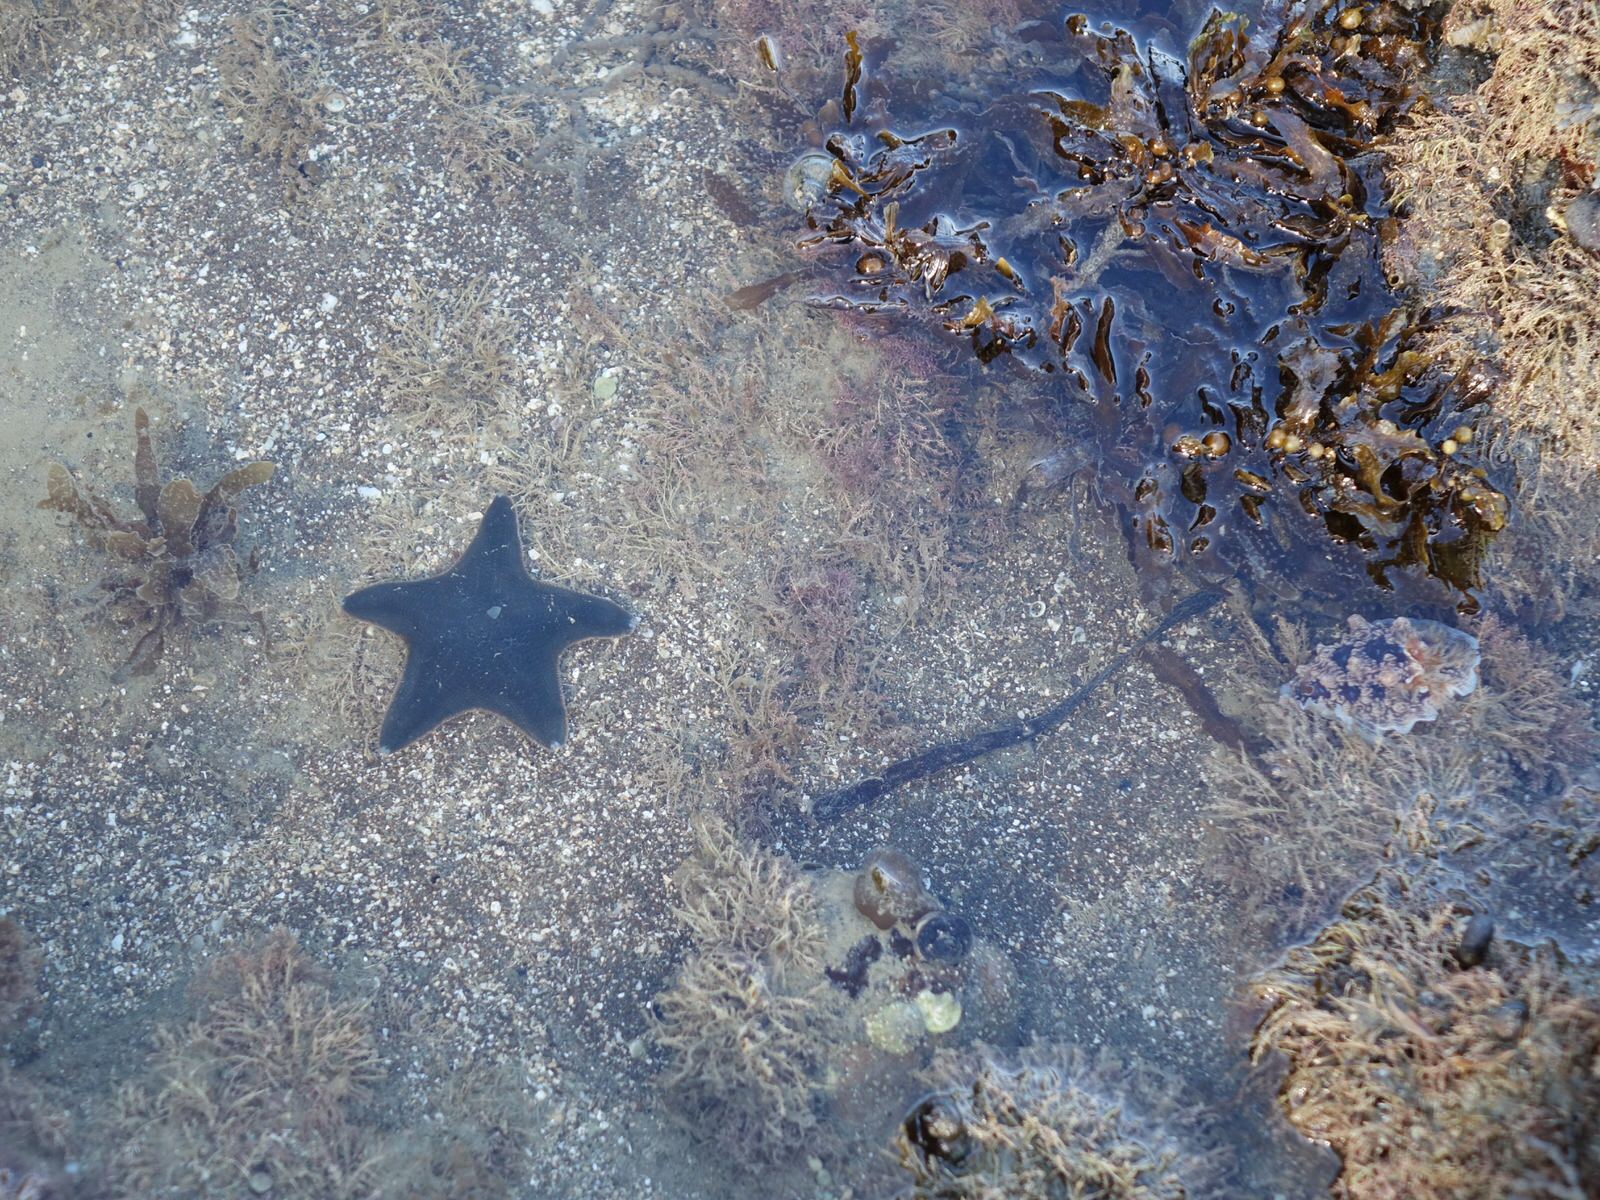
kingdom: Animalia
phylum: Echinodermata
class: Asteroidea
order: Valvatida
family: Asterinidae
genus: Patiriella
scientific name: Patiriella regularis
